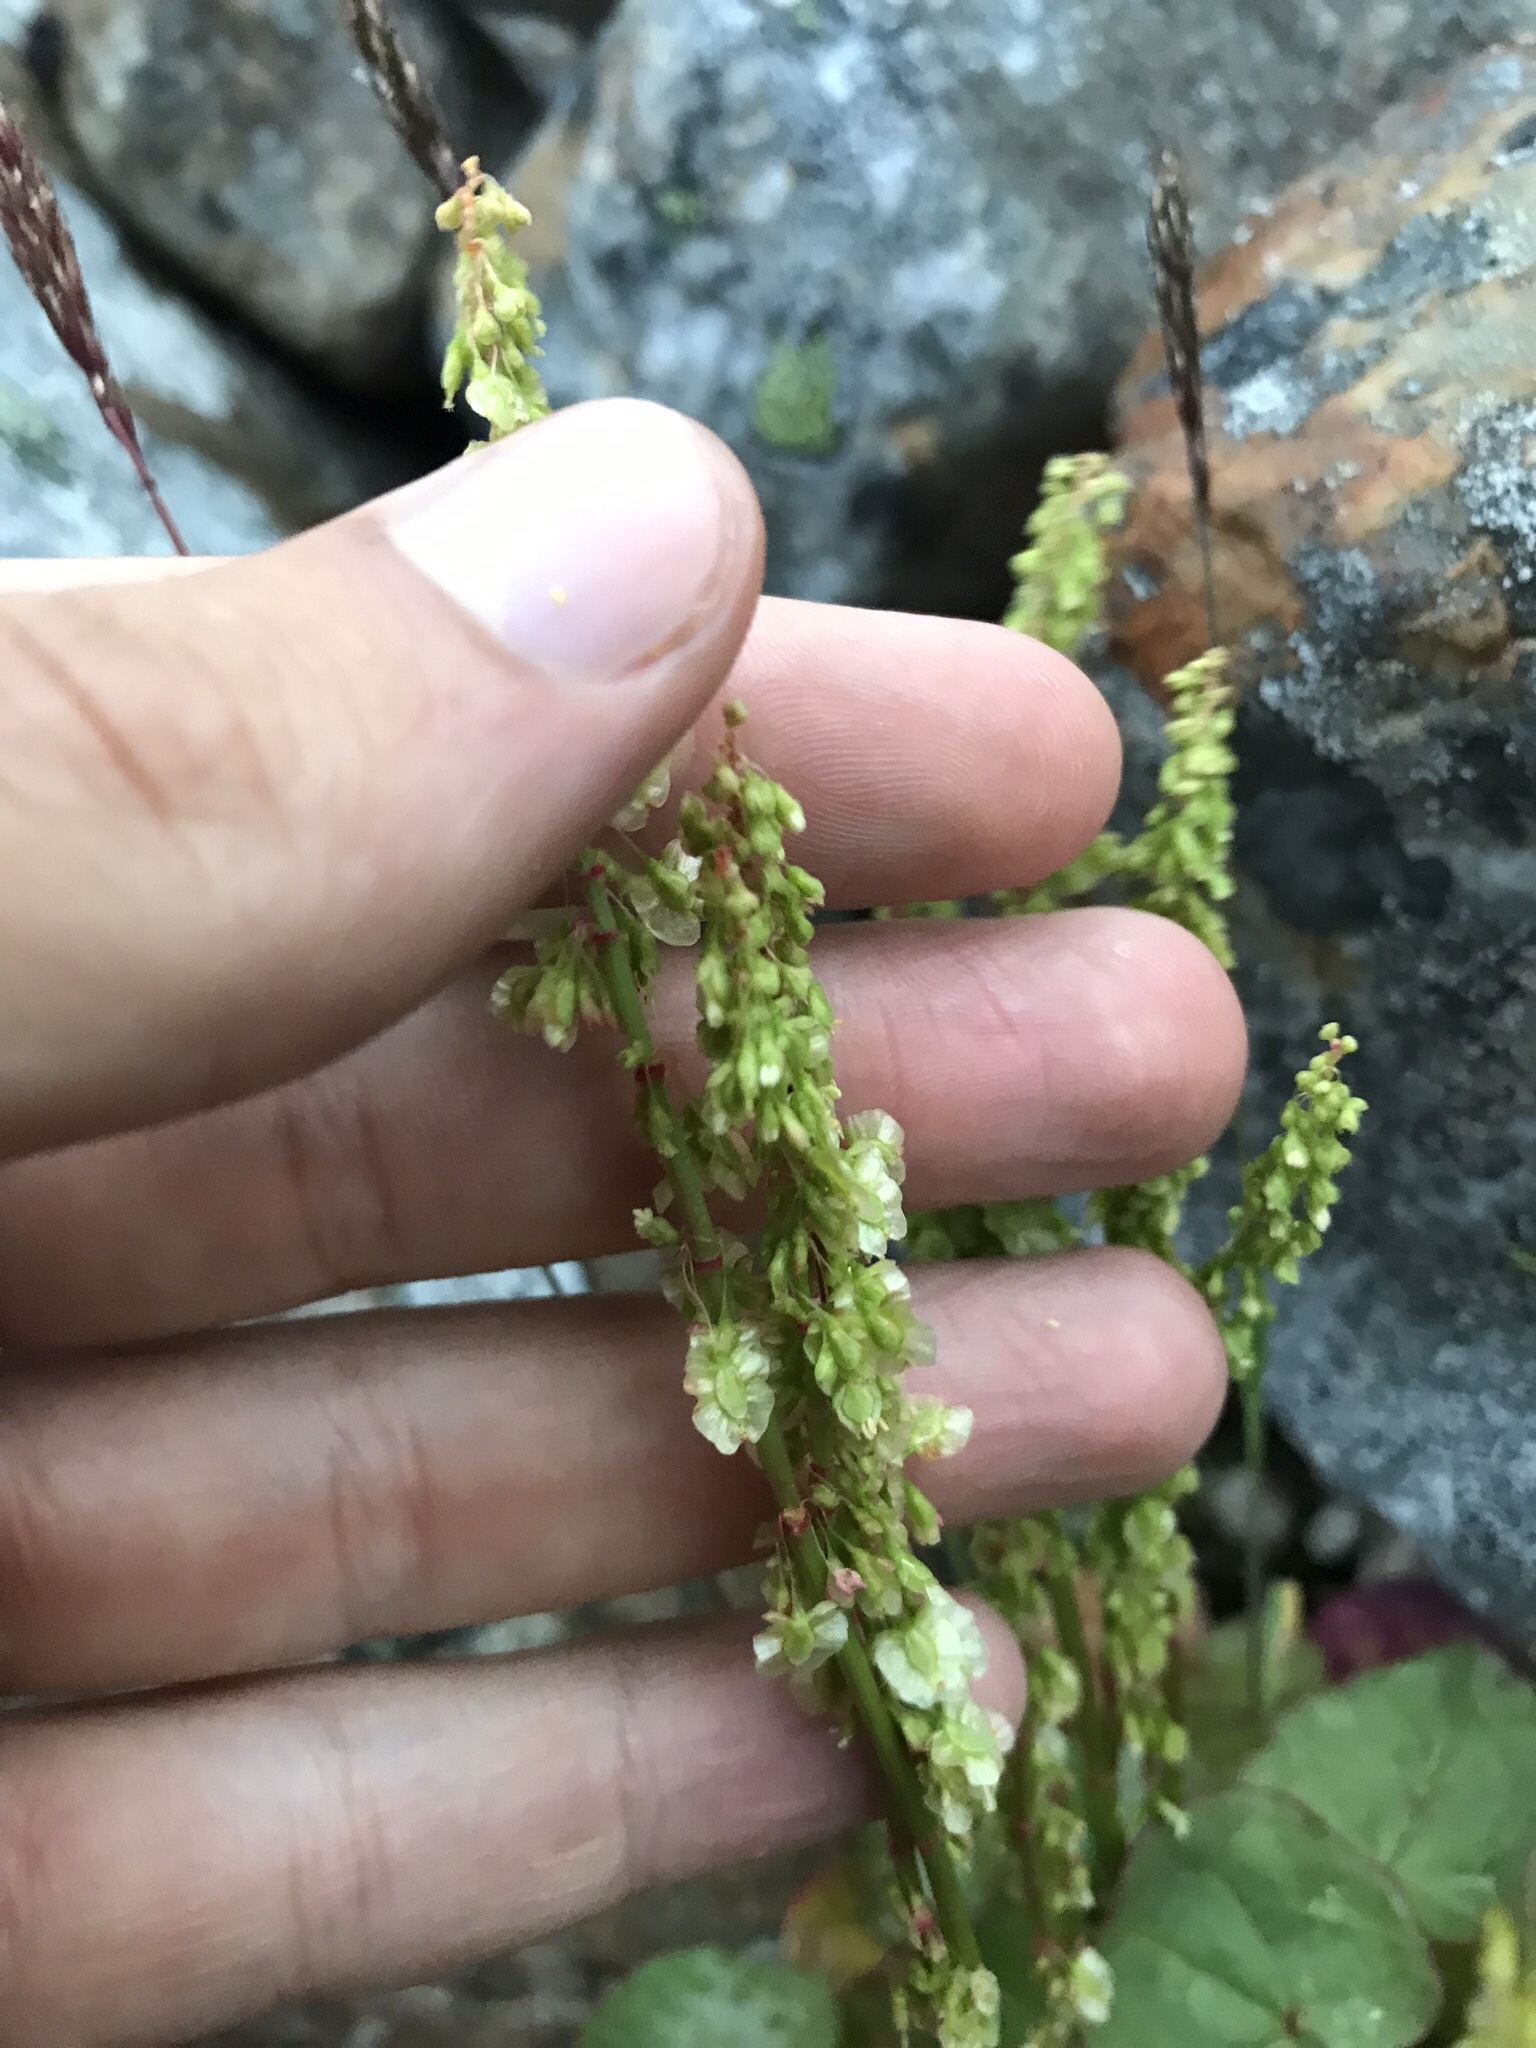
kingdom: Plantae
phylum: Tracheophyta
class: Magnoliopsida
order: Caryophyllales
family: Polygonaceae
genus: Oxyria
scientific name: Oxyria digyna
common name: Alpine mountain-sorrel
